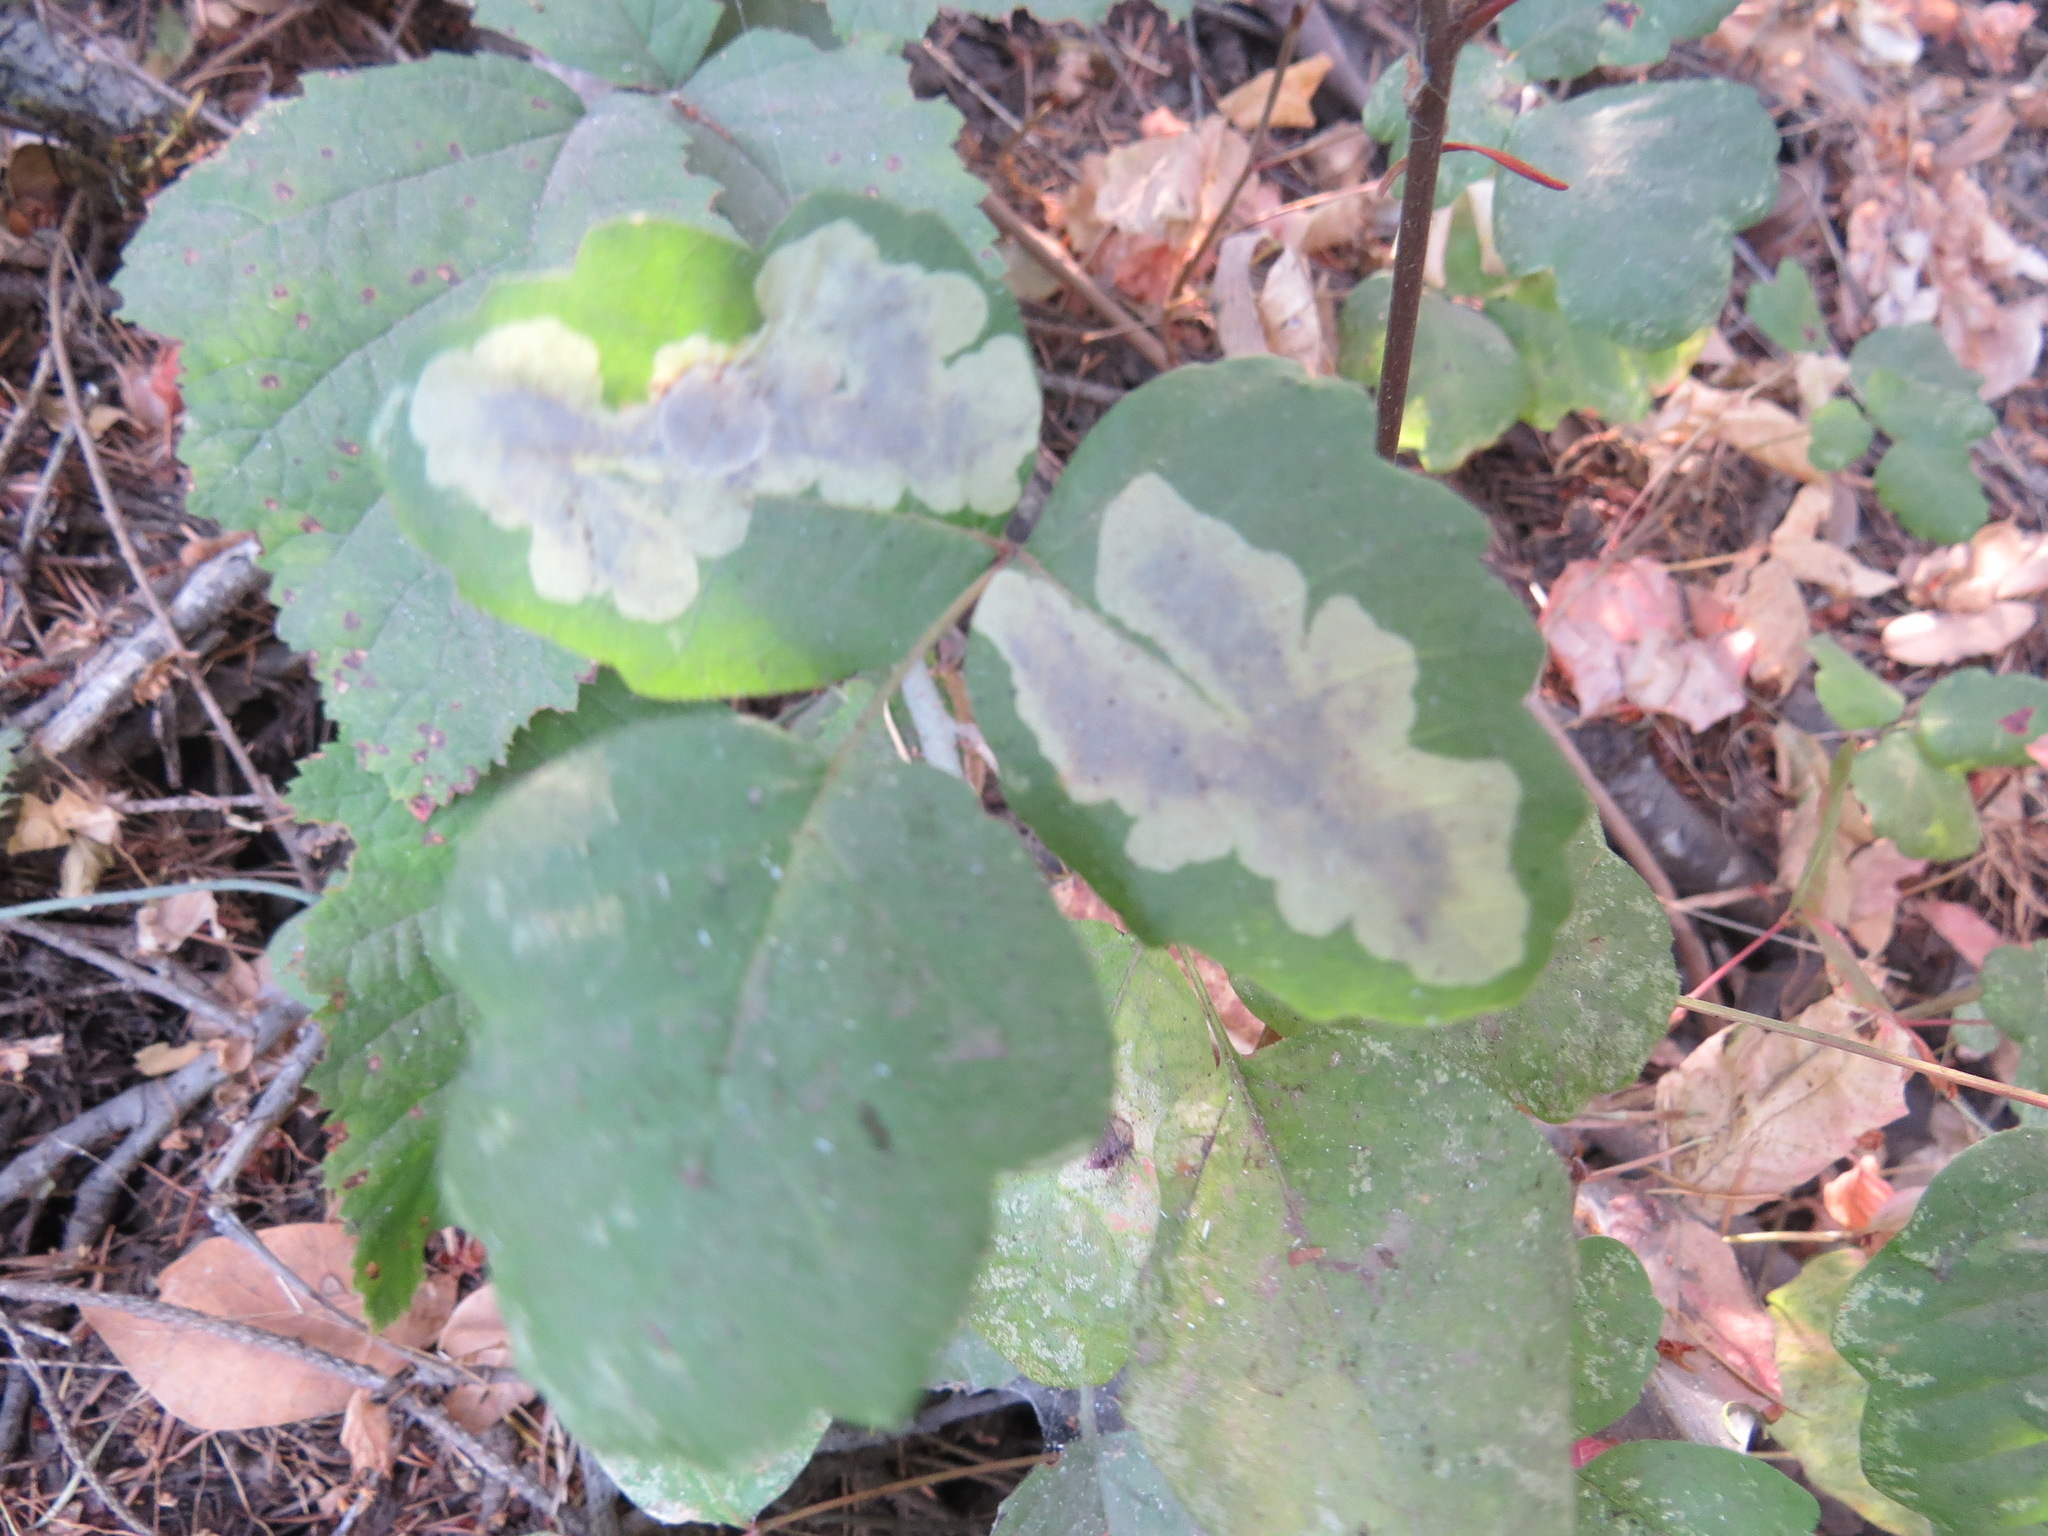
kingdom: Animalia
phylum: Arthropoda
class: Insecta
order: Lepidoptera
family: Gracillariidae
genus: Cameraria
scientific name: Cameraria guttifinitella
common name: Poison ivy leaf-miner moth
